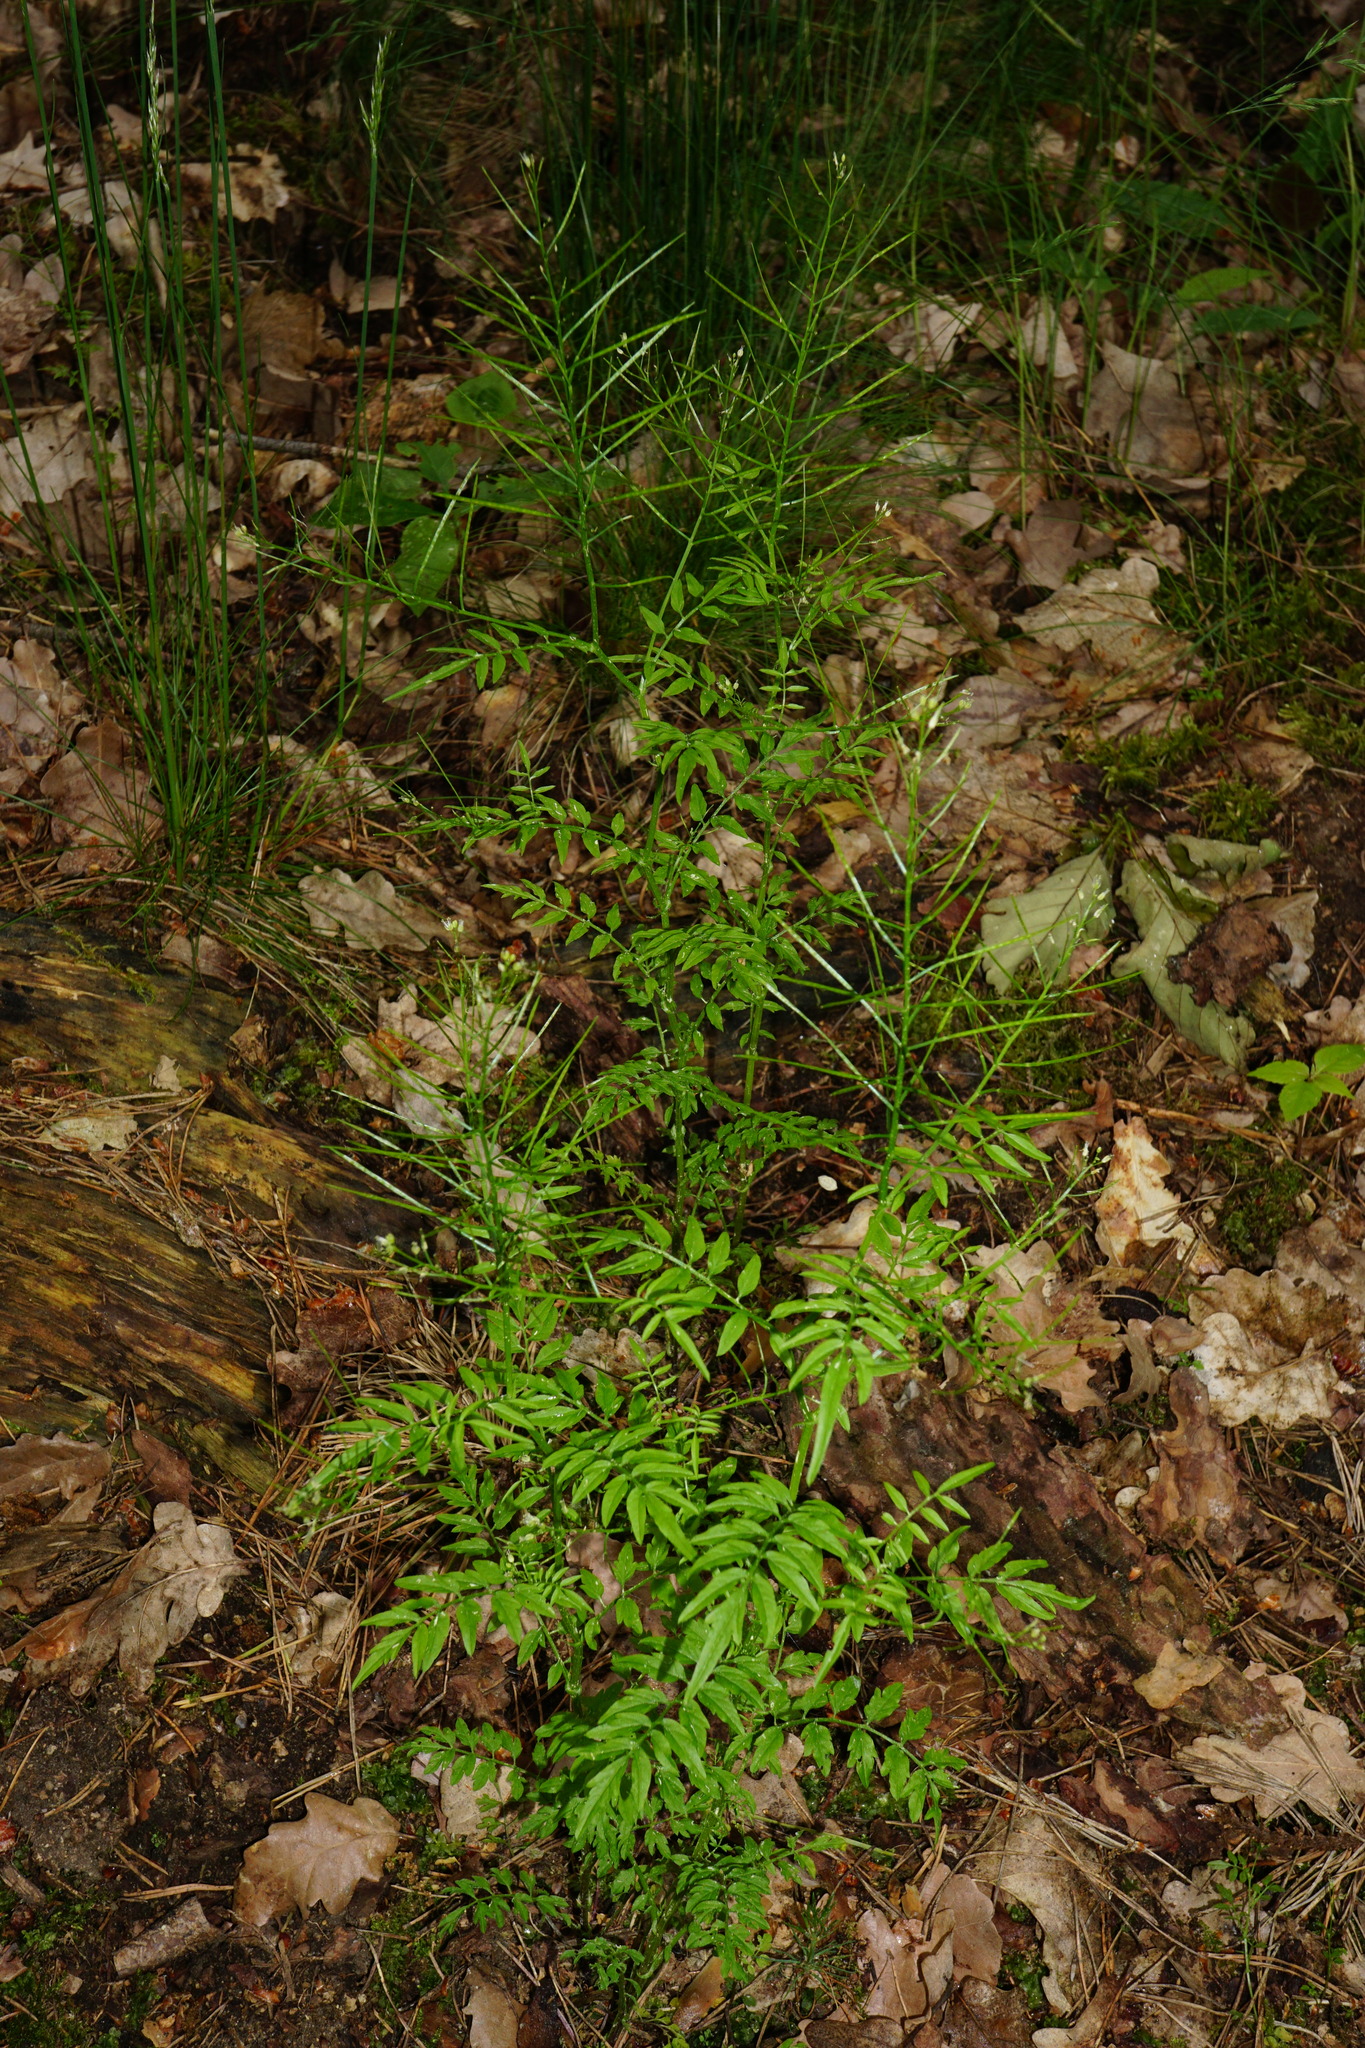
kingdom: Plantae
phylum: Tracheophyta
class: Magnoliopsida
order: Brassicales
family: Brassicaceae
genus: Cardamine
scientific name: Cardamine impatiens
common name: Narrow-leaved bitter-cress
